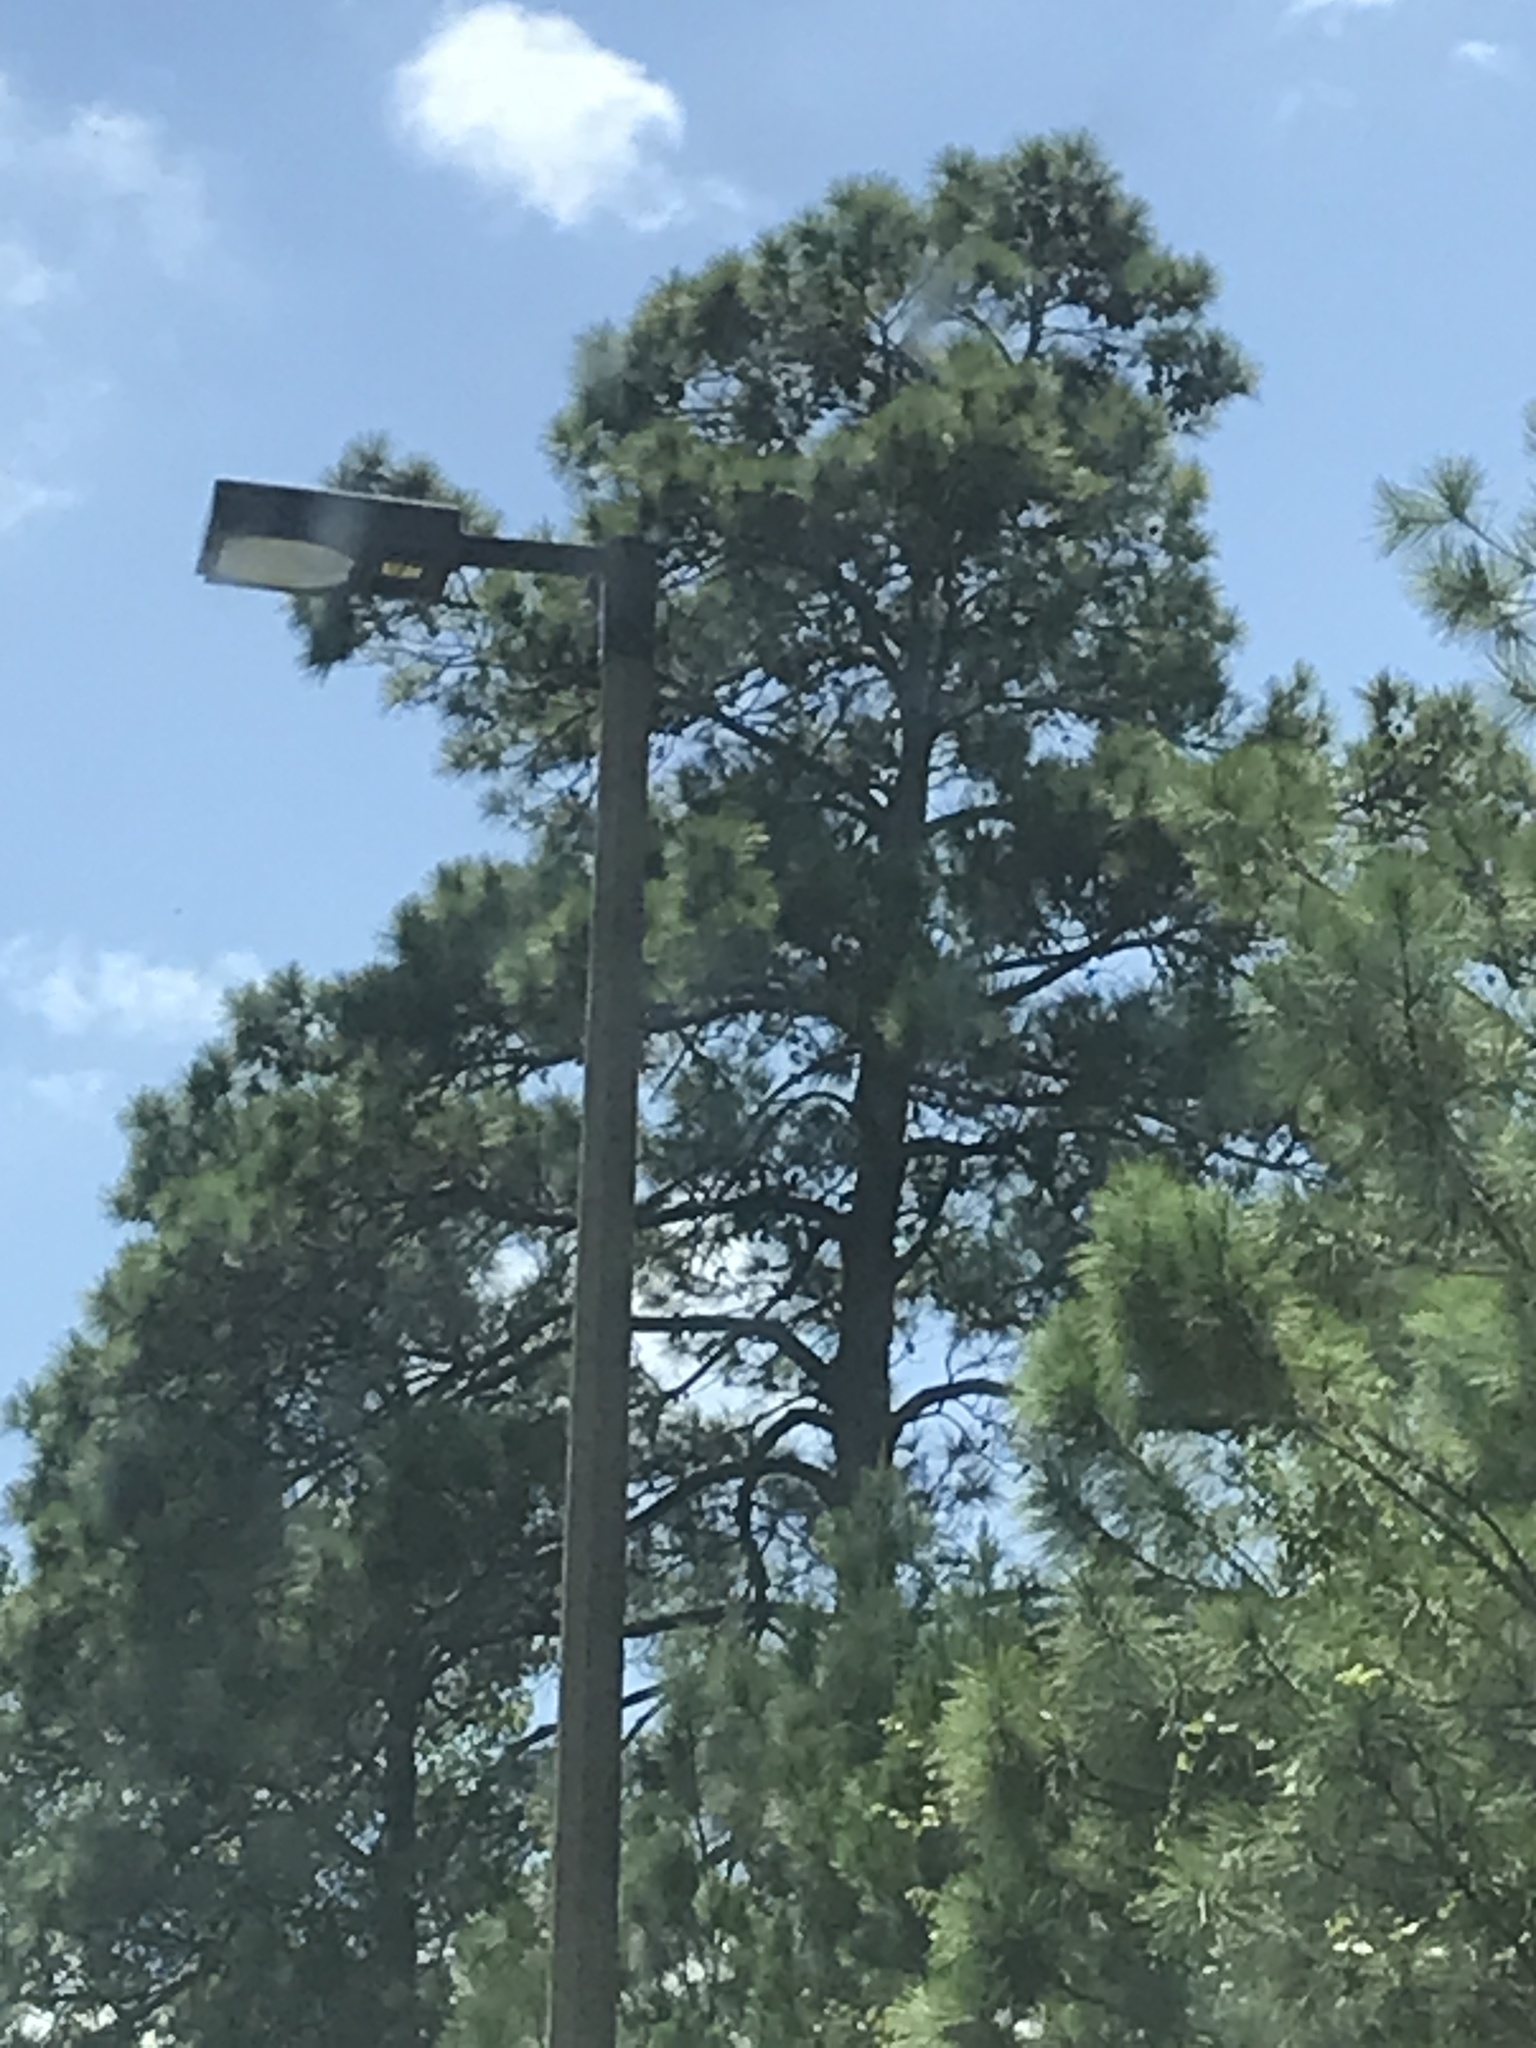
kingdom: Plantae
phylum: Tracheophyta
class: Pinopsida
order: Pinales
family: Pinaceae
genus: Pinus
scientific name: Pinus taeda
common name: Loblolly pine
